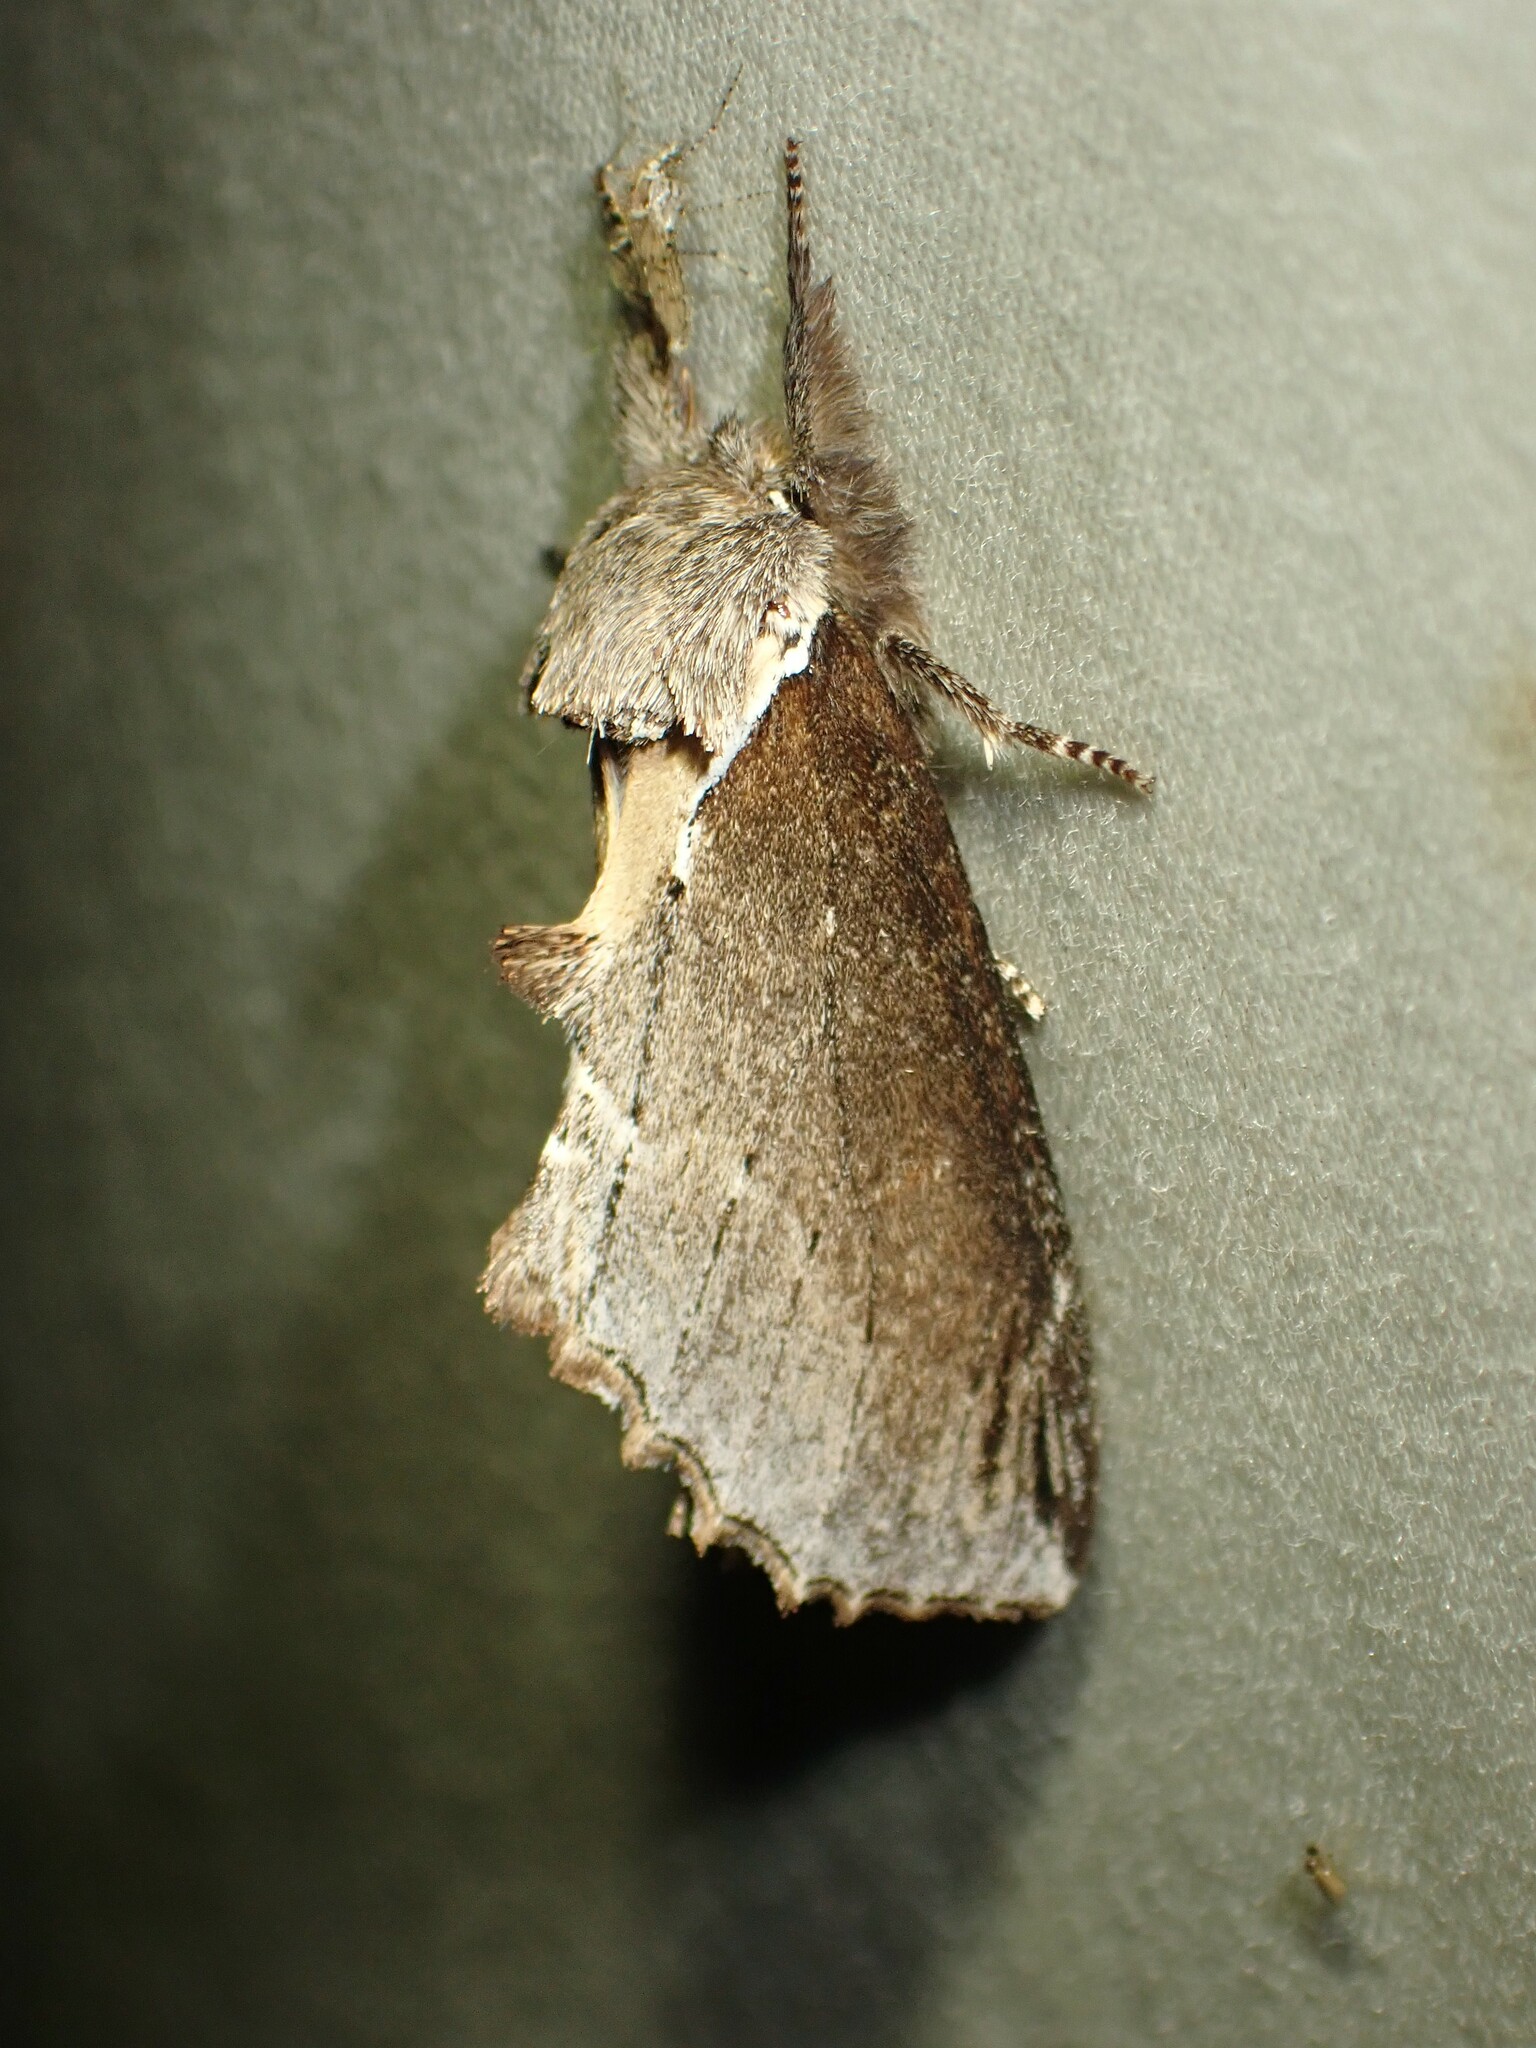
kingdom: Animalia
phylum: Arthropoda
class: Insecta
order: Lepidoptera
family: Notodontidae
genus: Pheosidea
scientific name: Pheosidea elegans
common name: Elegant prominent
